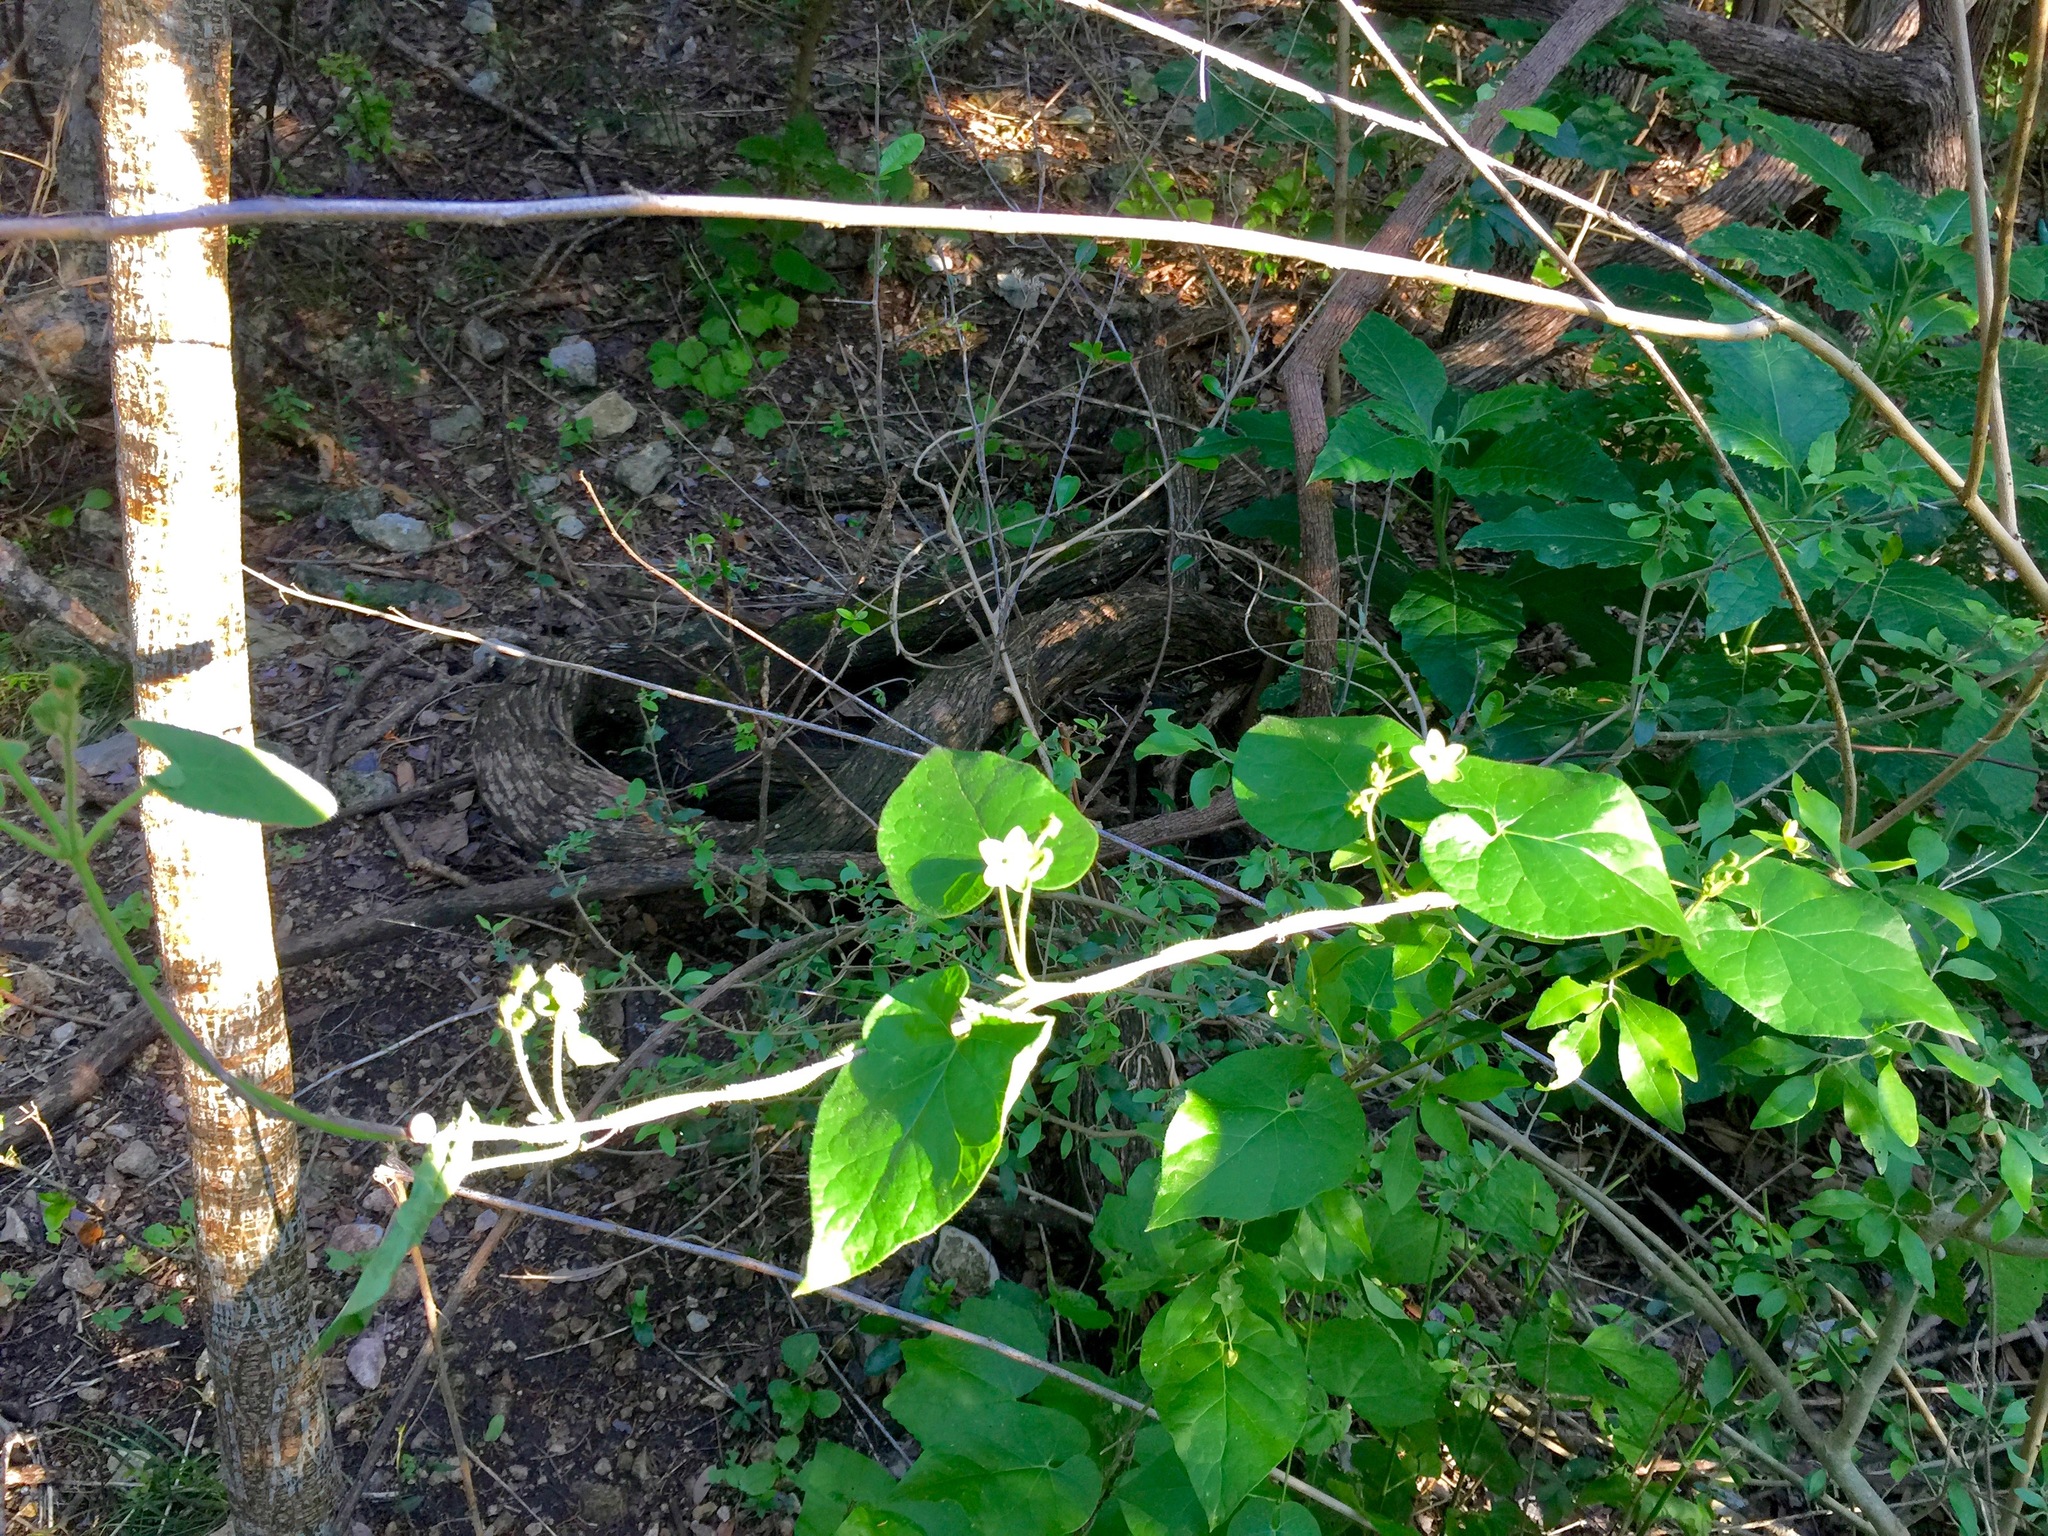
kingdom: Plantae
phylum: Tracheophyta
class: Magnoliopsida
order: Gentianales
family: Apocynaceae
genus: Dictyanthus
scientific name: Dictyanthus reticulatus
